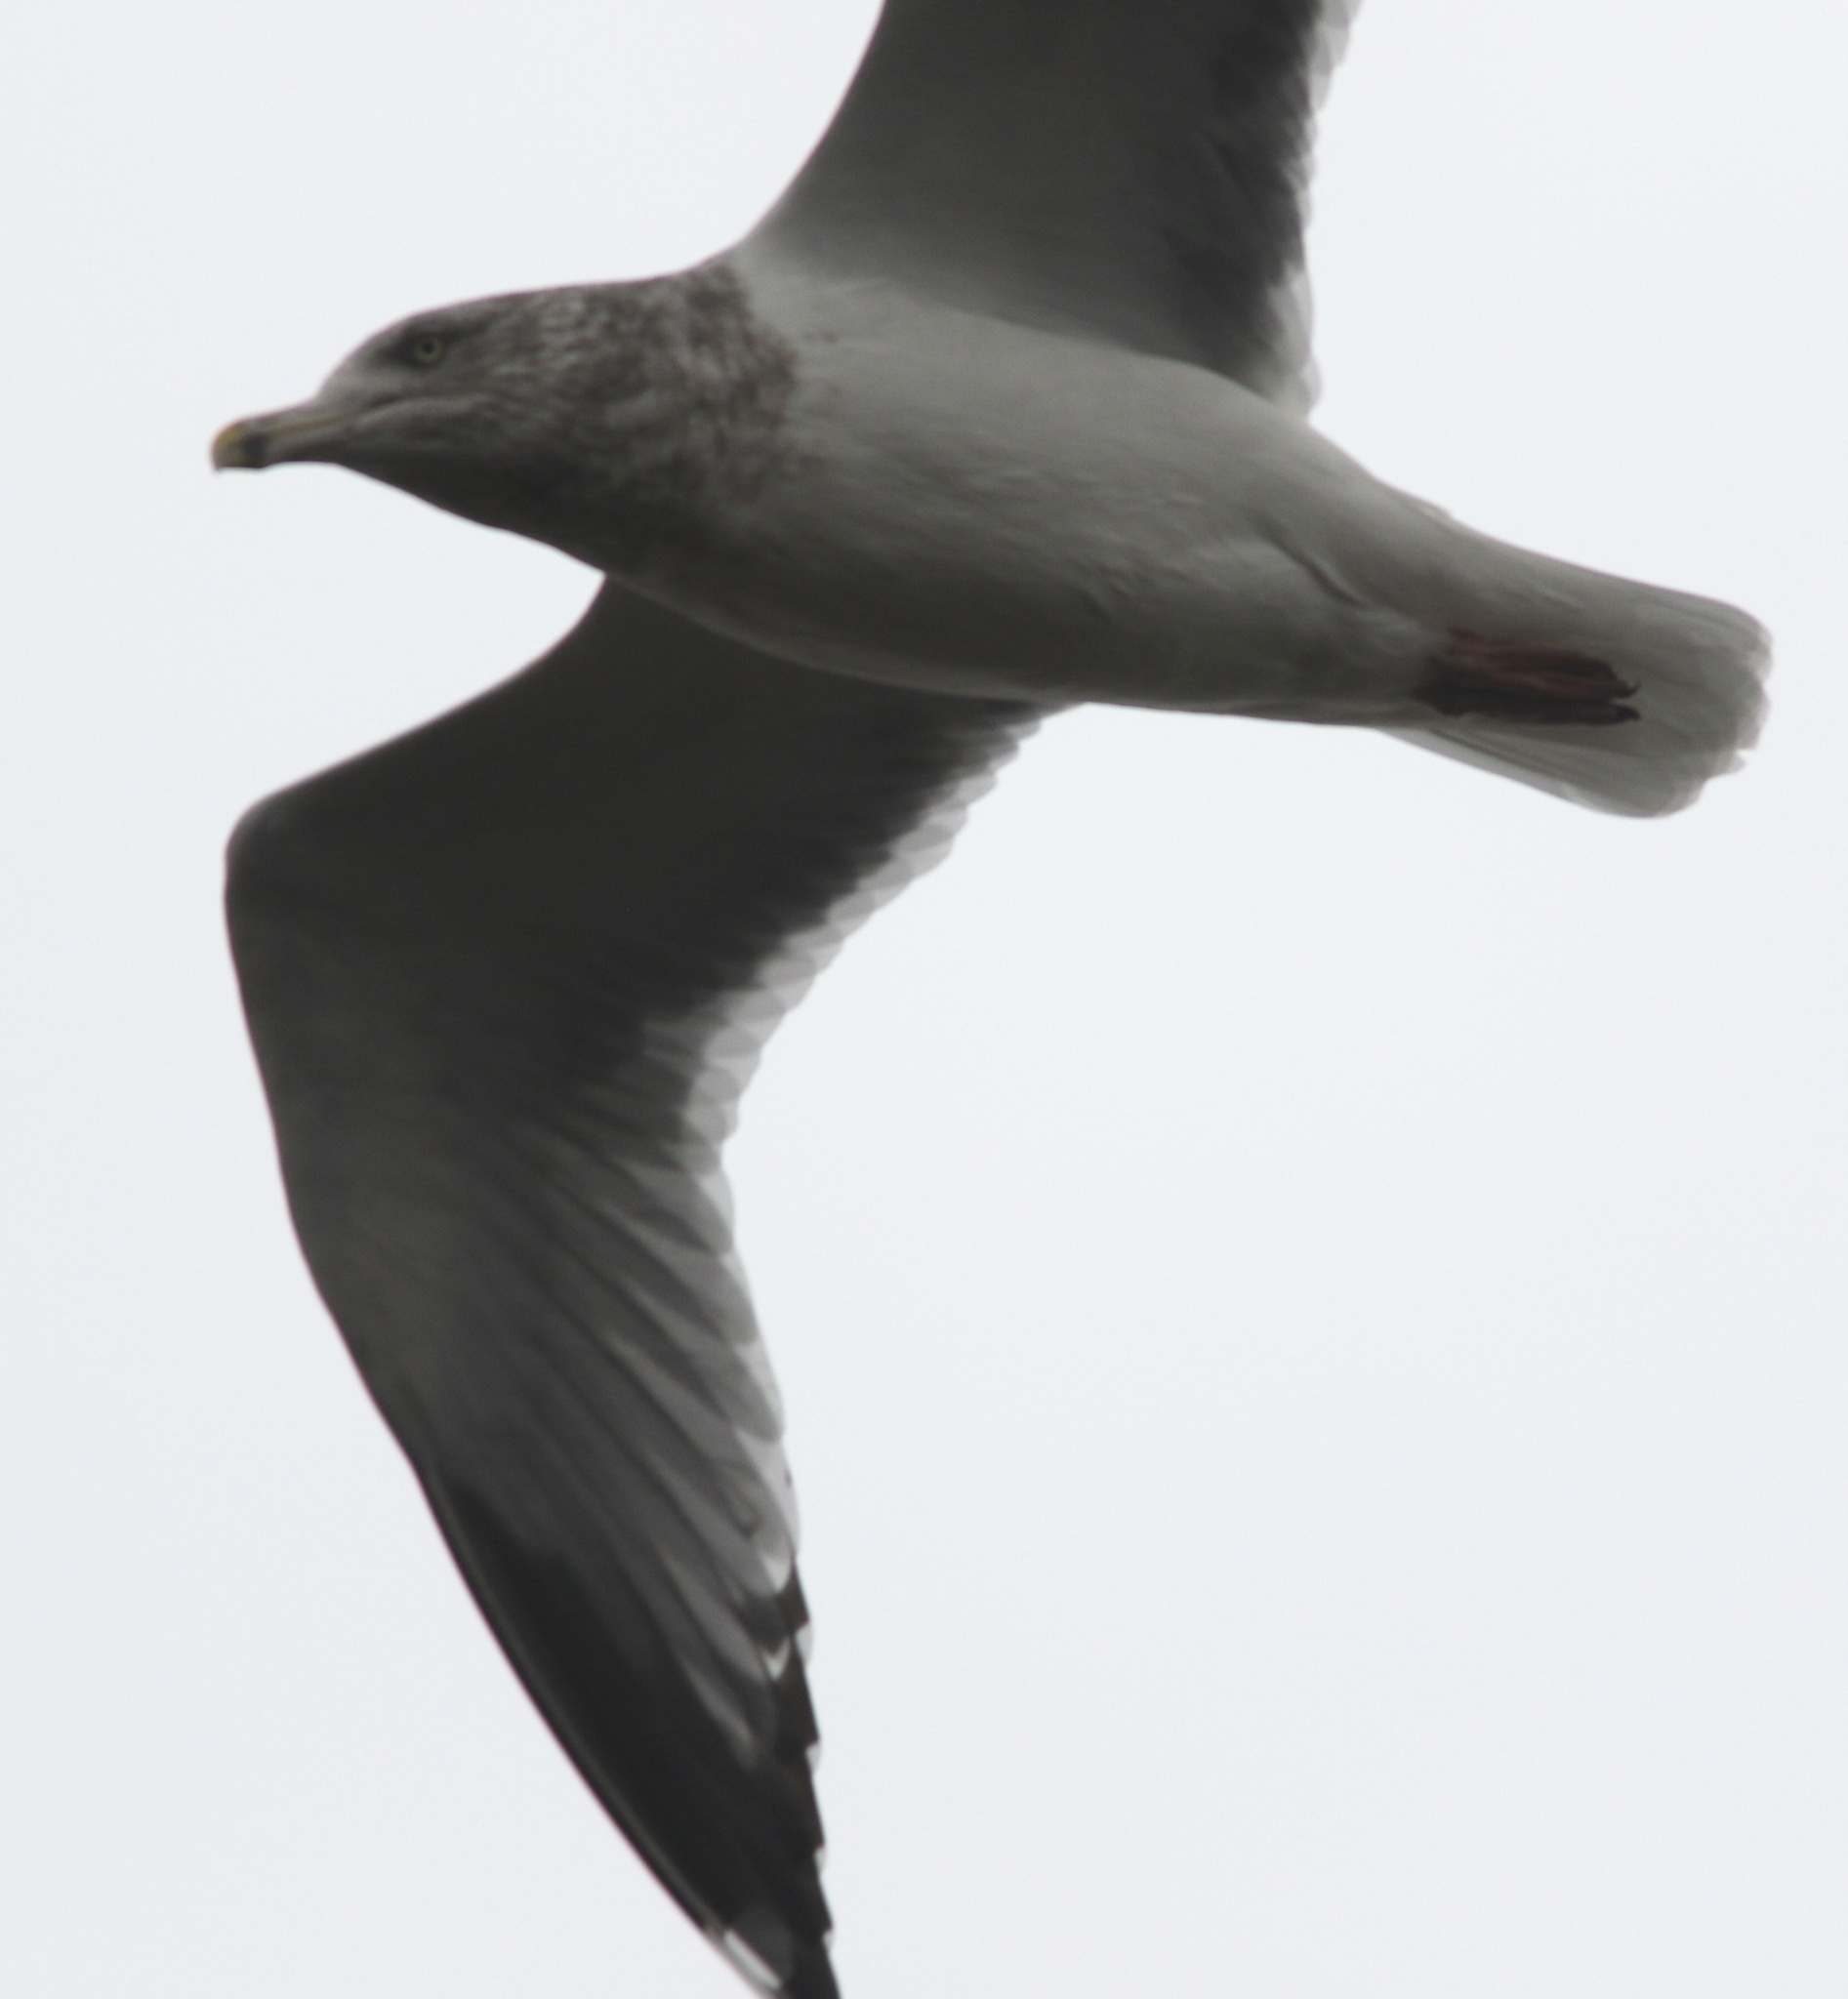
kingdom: Animalia
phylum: Chordata
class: Aves
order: Charadriiformes
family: Laridae
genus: Larus
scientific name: Larus argentatus
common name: Herring gull
